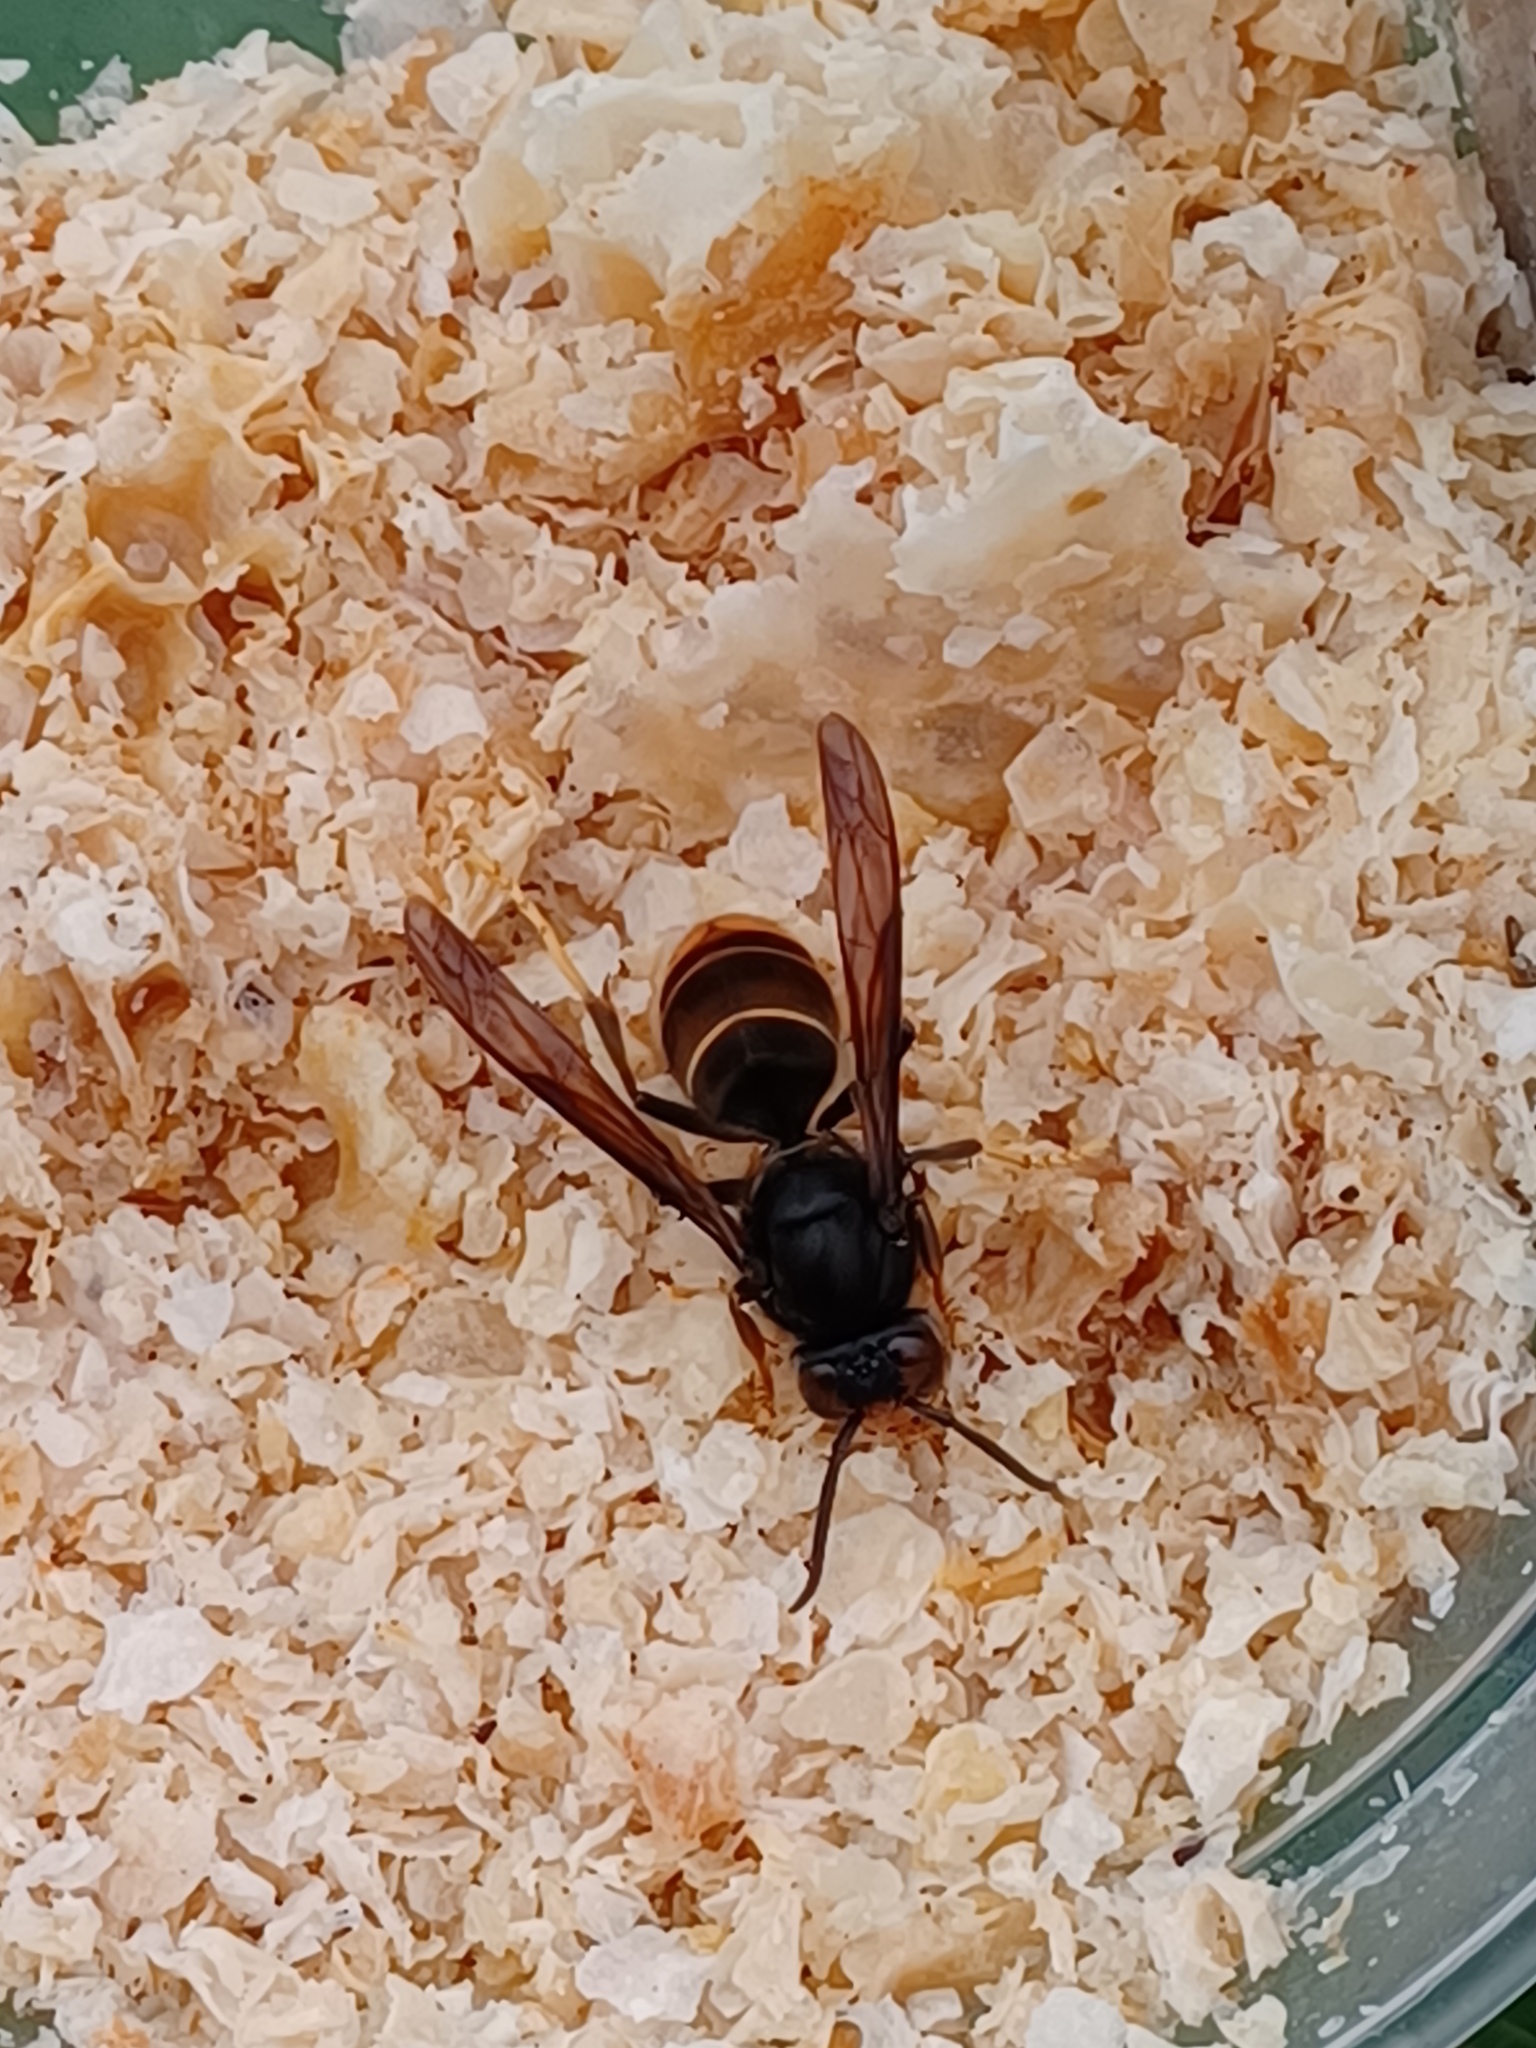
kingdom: Animalia
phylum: Arthropoda
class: Insecta
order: Hymenoptera
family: Vespidae
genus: Vespa
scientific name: Vespa velutina
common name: Asian hornet
